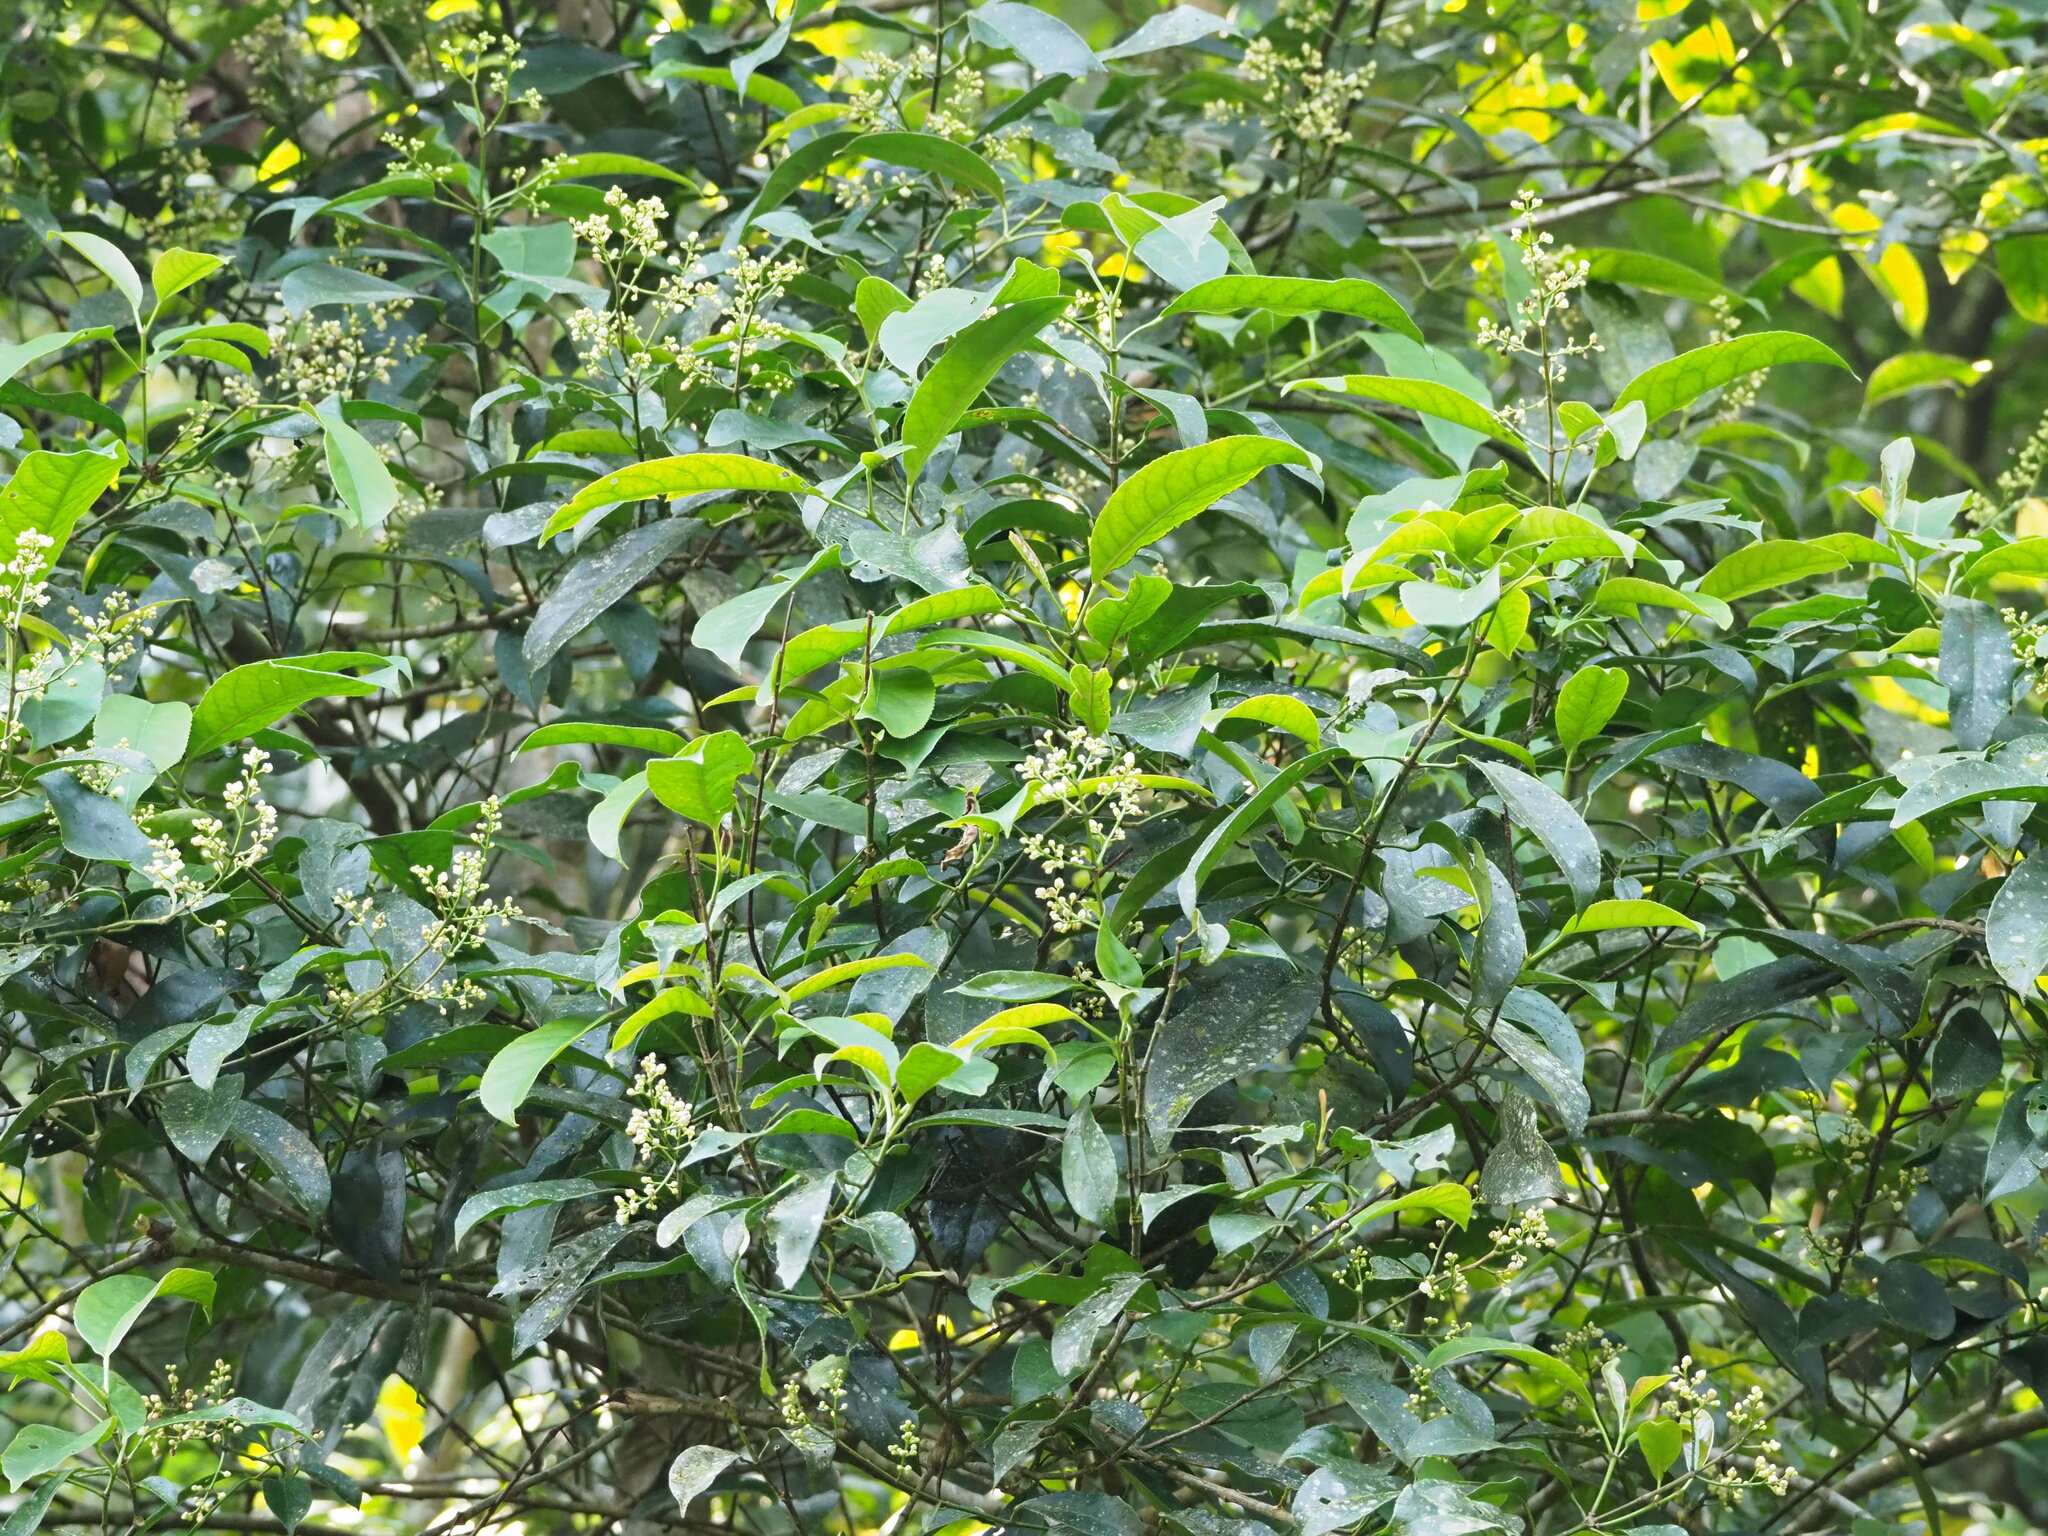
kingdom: Plantae
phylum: Tracheophyta
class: Magnoliopsida
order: Crossosomatales
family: Staphyleaceae
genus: Turpinia
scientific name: Turpinia formosana
